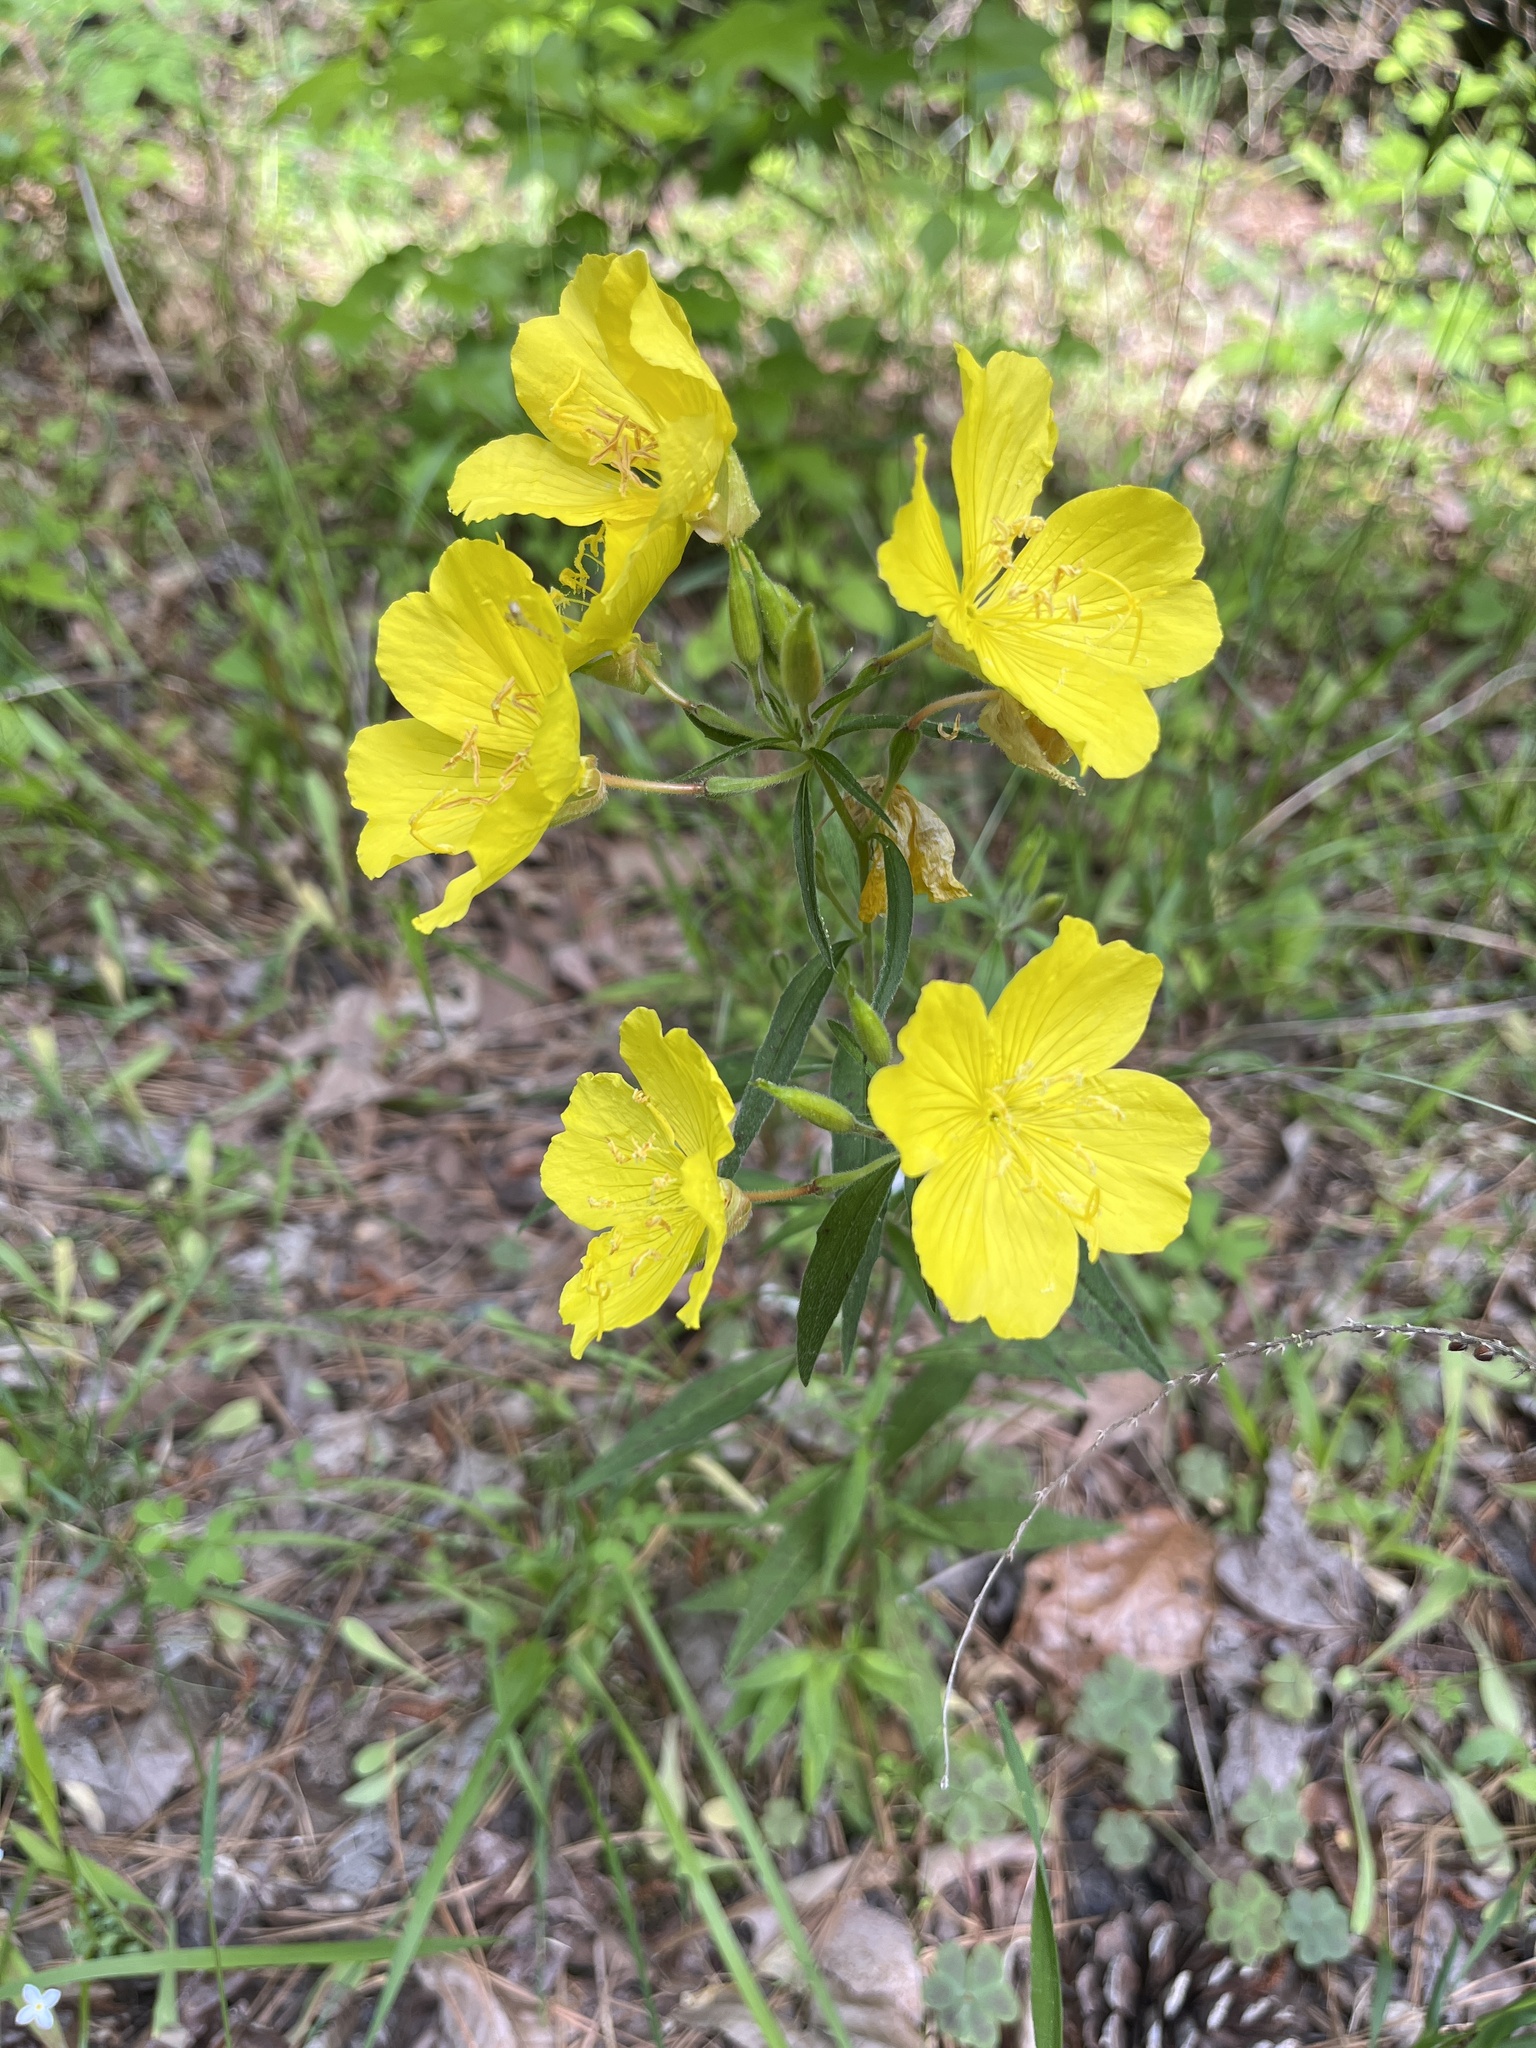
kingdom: Plantae
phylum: Tracheophyta
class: Magnoliopsida
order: Myrtales
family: Onagraceae
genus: Oenothera
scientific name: Oenothera fruticosa
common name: Southern sundrops
